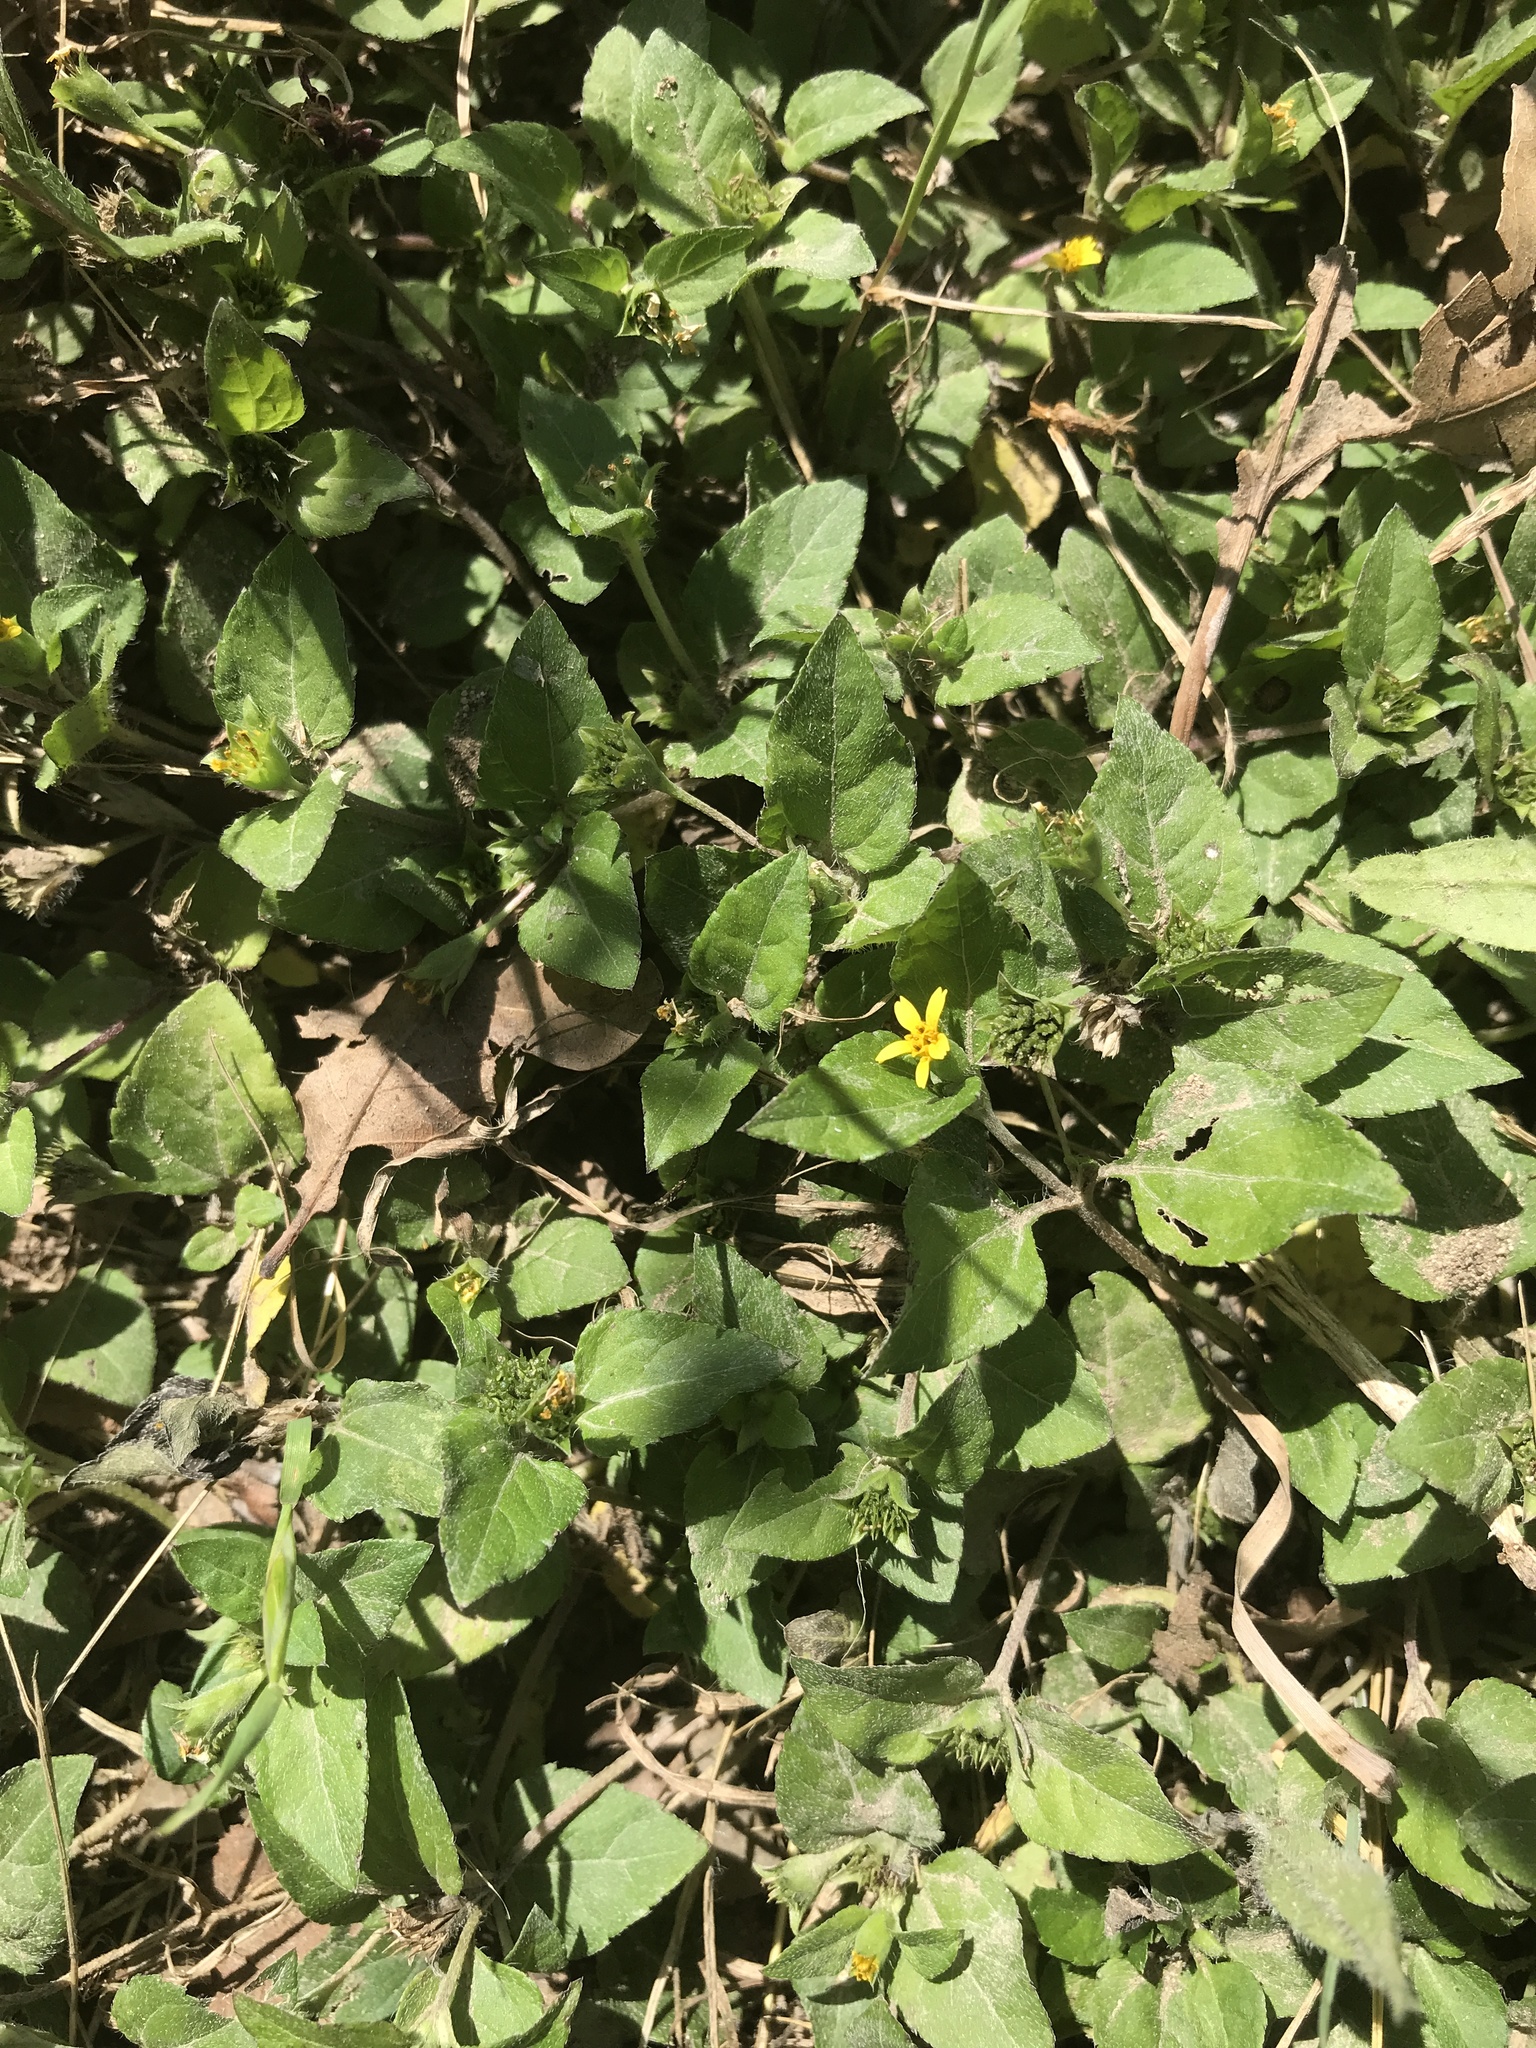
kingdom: Plantae
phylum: Tracheophyta
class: Magnoliopsida
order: Asterales
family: Asteraceae
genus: Calyptocarpus
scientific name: Calyptocarpus vialis
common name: Straggler daisy
